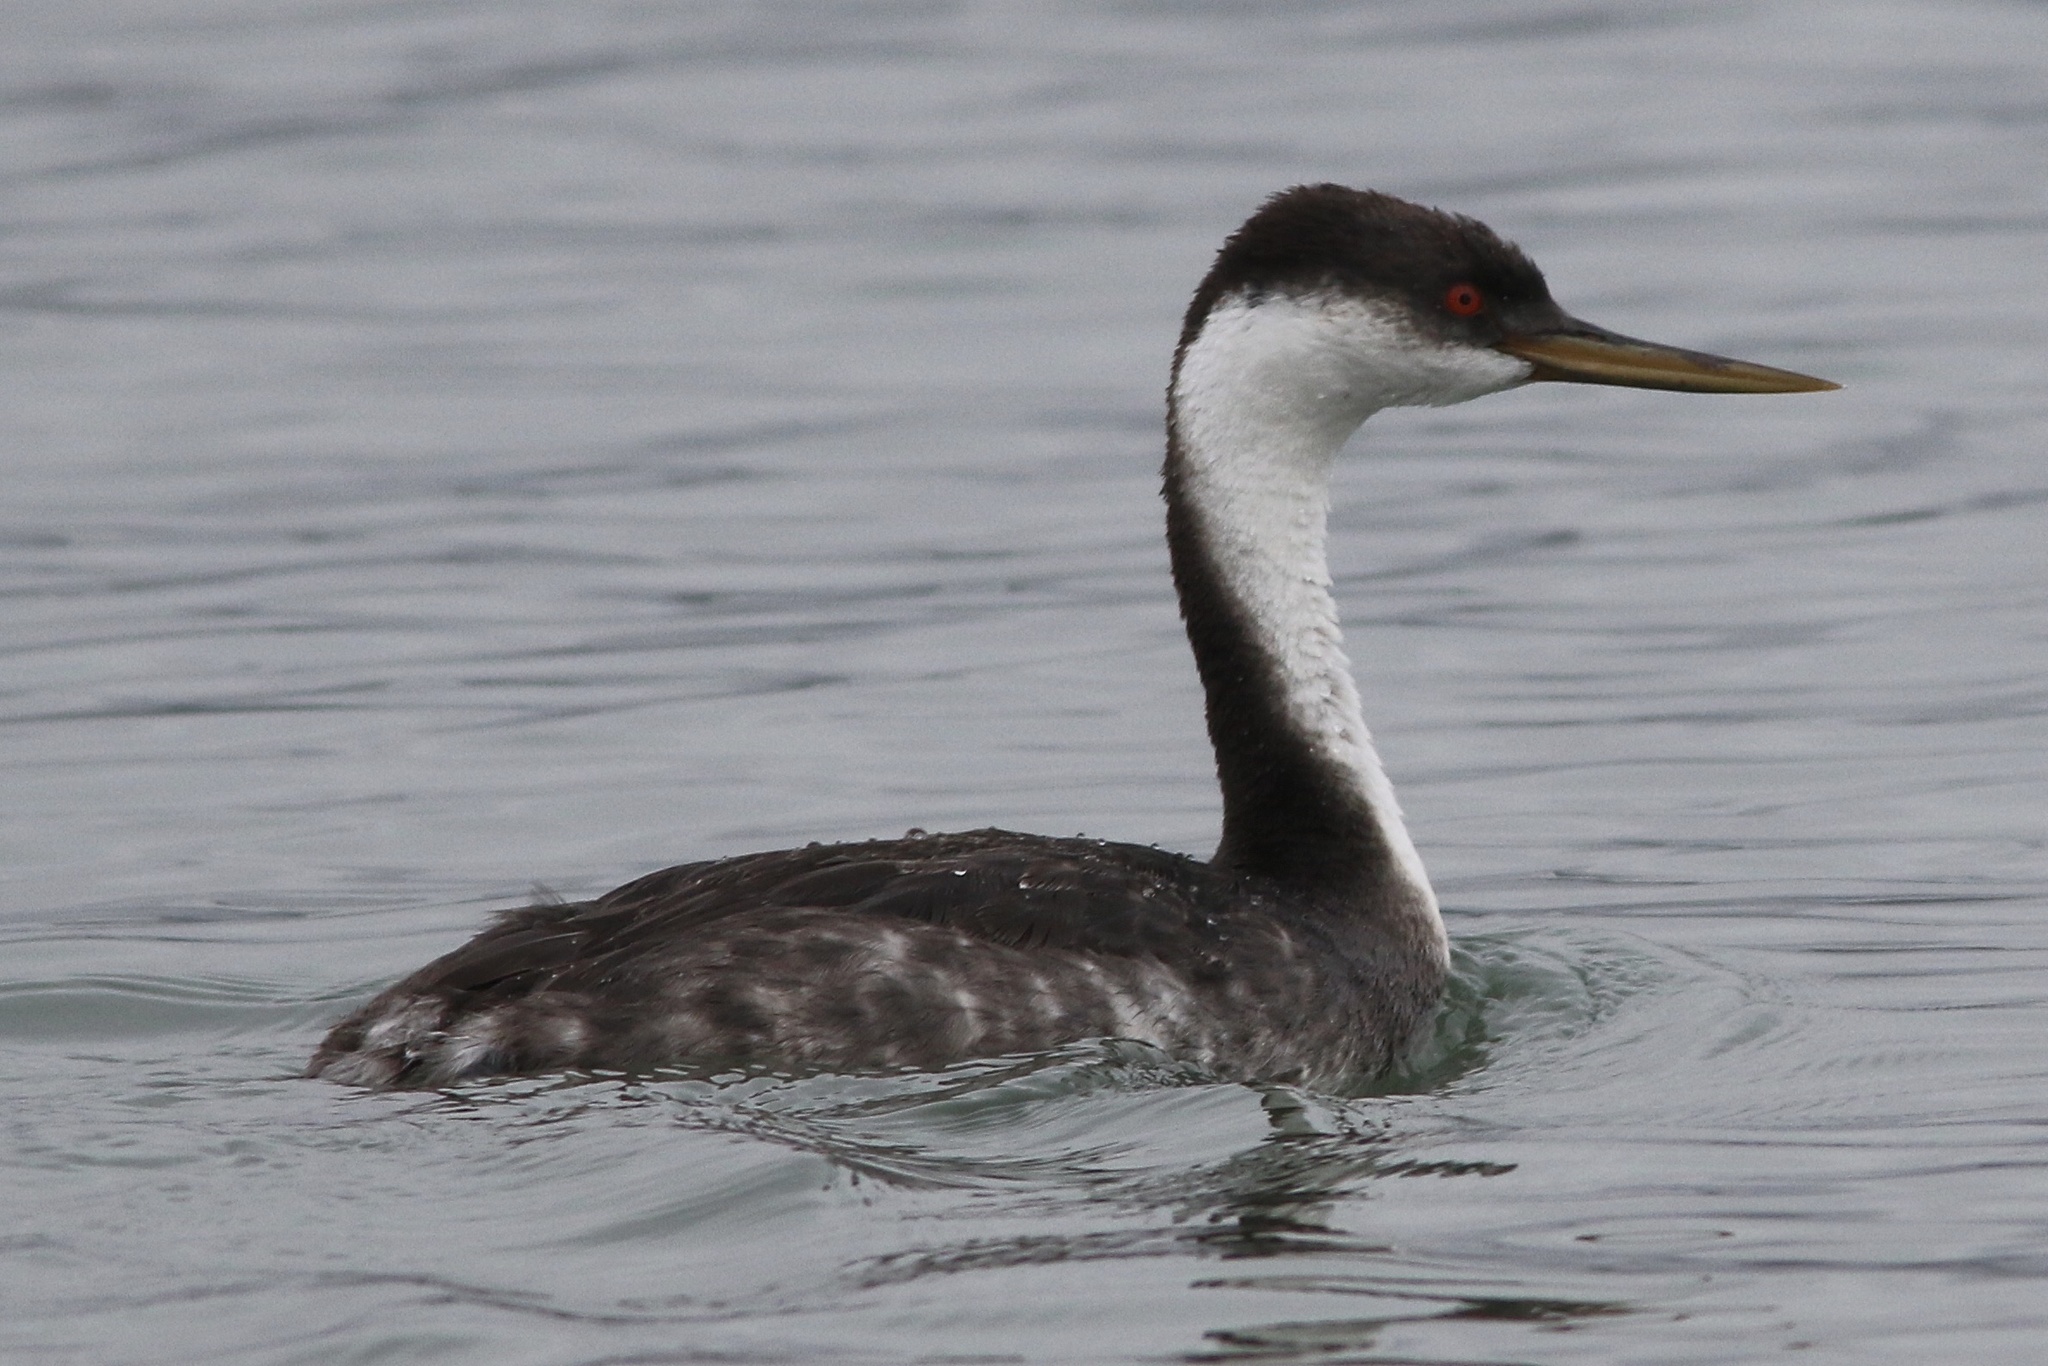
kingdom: Animalia
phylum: Chordata
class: Aves
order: Podicipediformes
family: Podicipedidae
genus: Aechmophorus
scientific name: Aechmophorus occidentalis
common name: Western grebe
